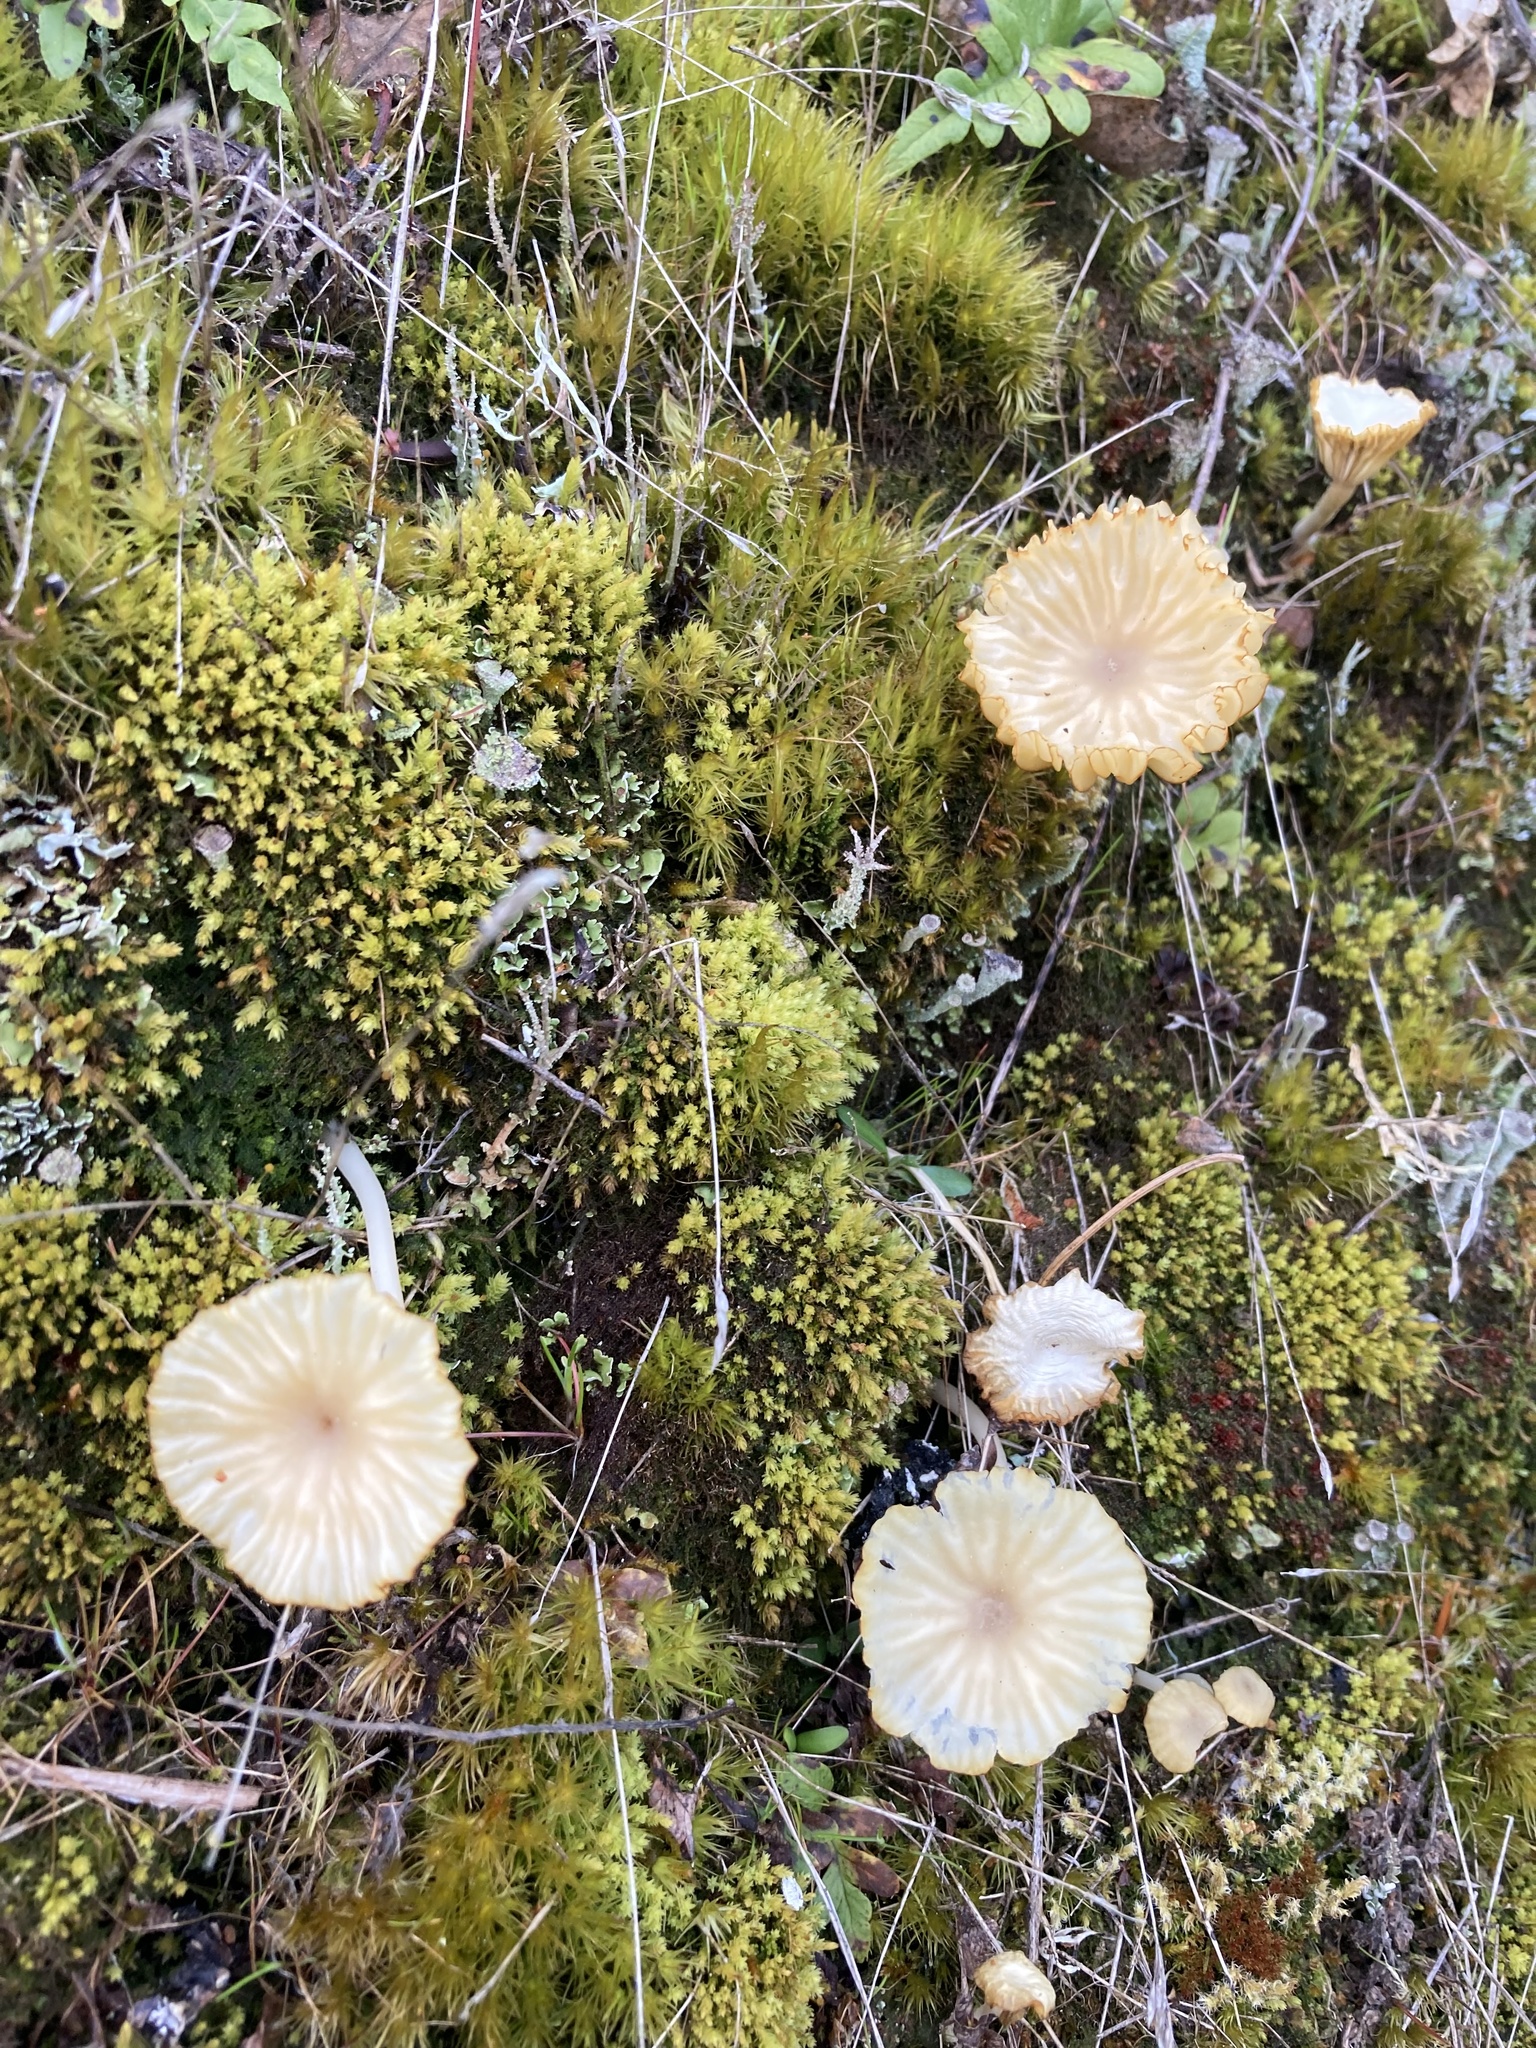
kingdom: Fungi
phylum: Basidiomycota
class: Agaricomycetes
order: Agaricales
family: Hygrophoraceae
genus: Lichenomphalia
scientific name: Lichenomphalia
